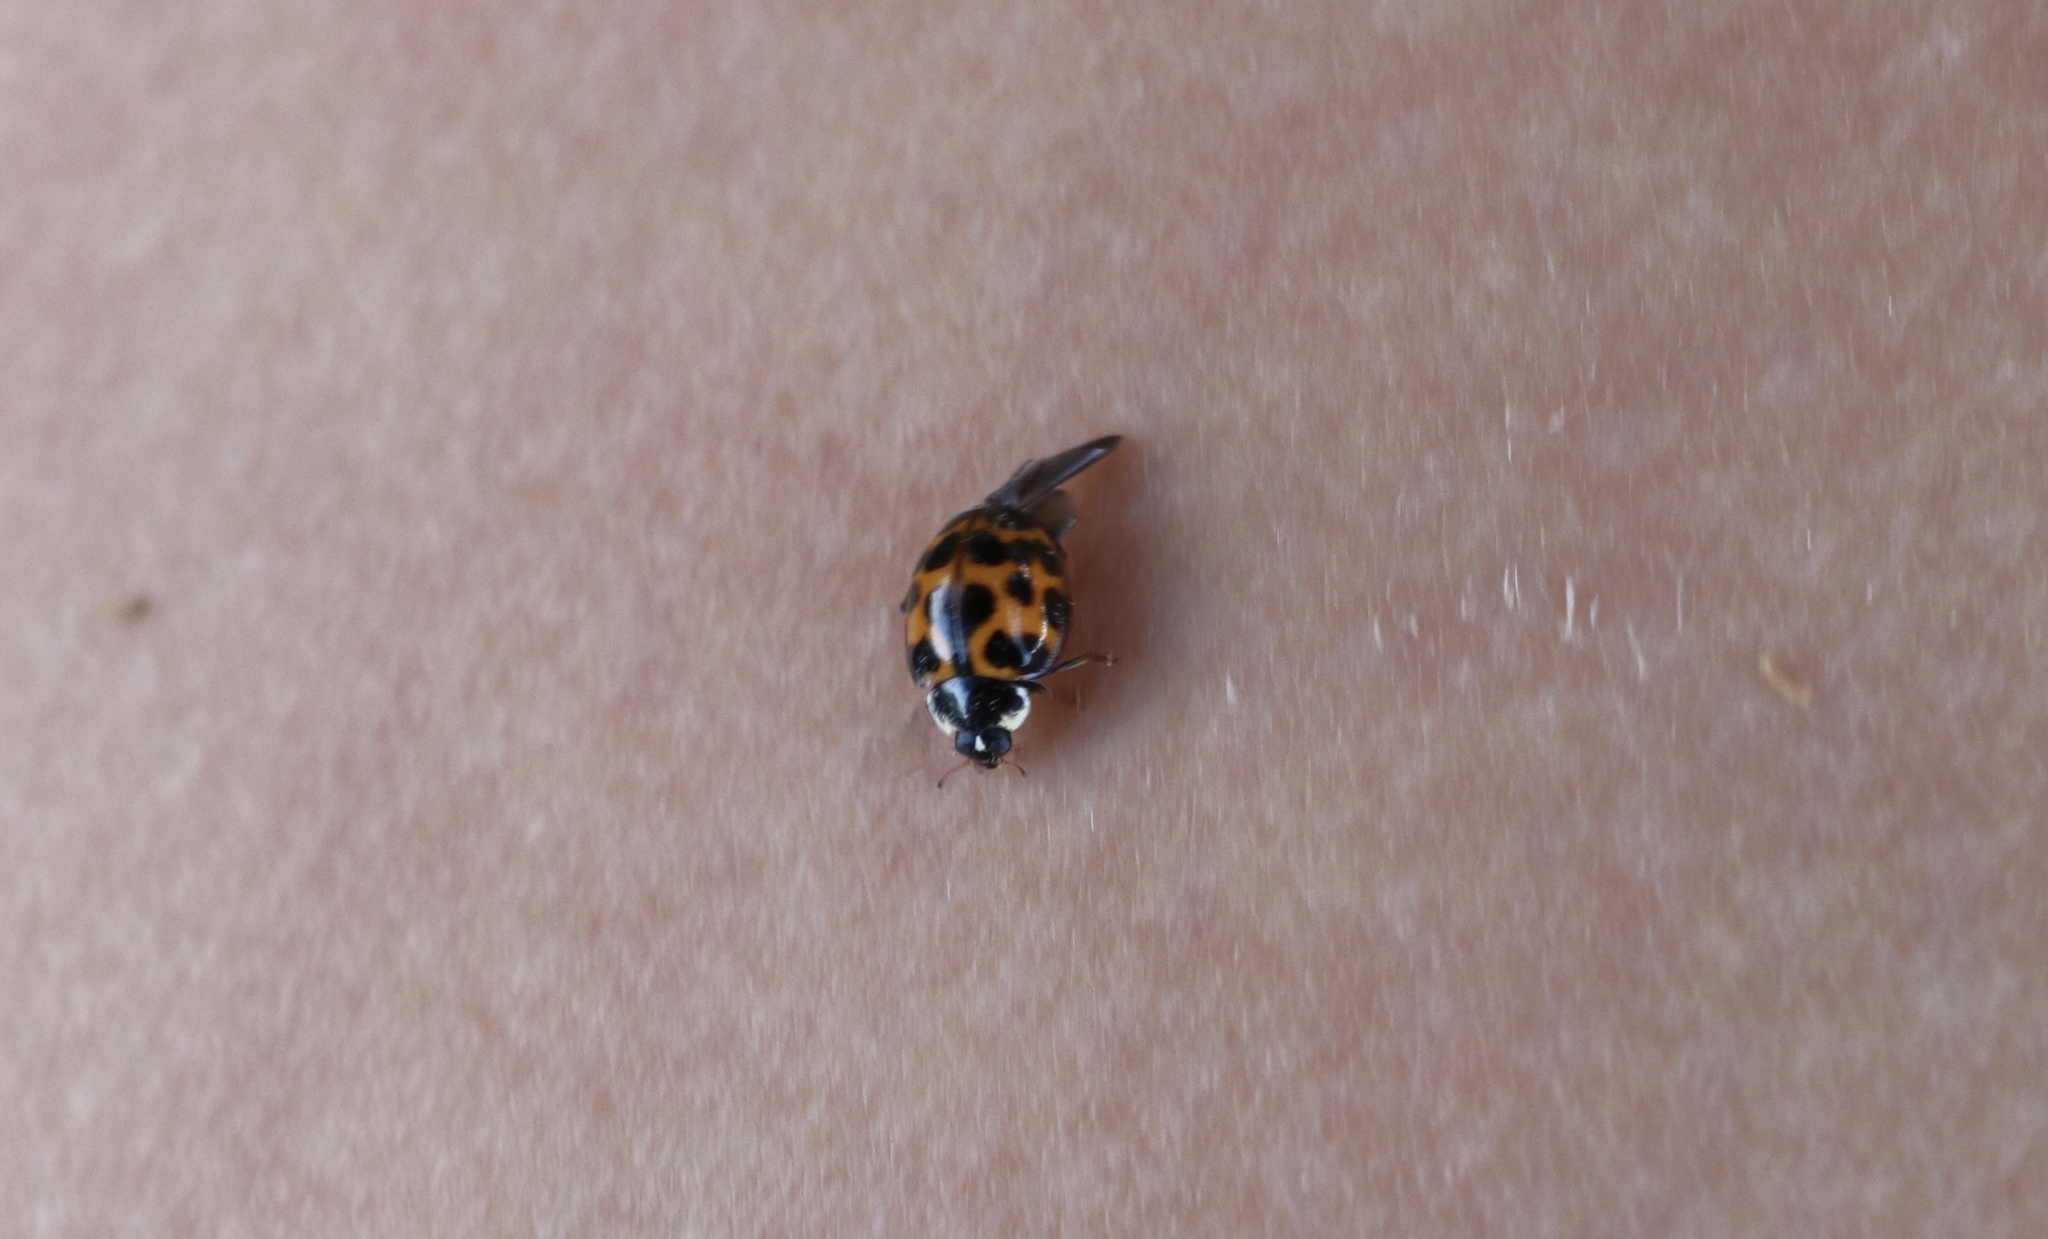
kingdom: Animalia
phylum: Arthropoda
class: Insecta
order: Coleoptera
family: Coccinellidae
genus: Harmonia
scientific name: Harmonia axyridis
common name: Harlequin ladybird
